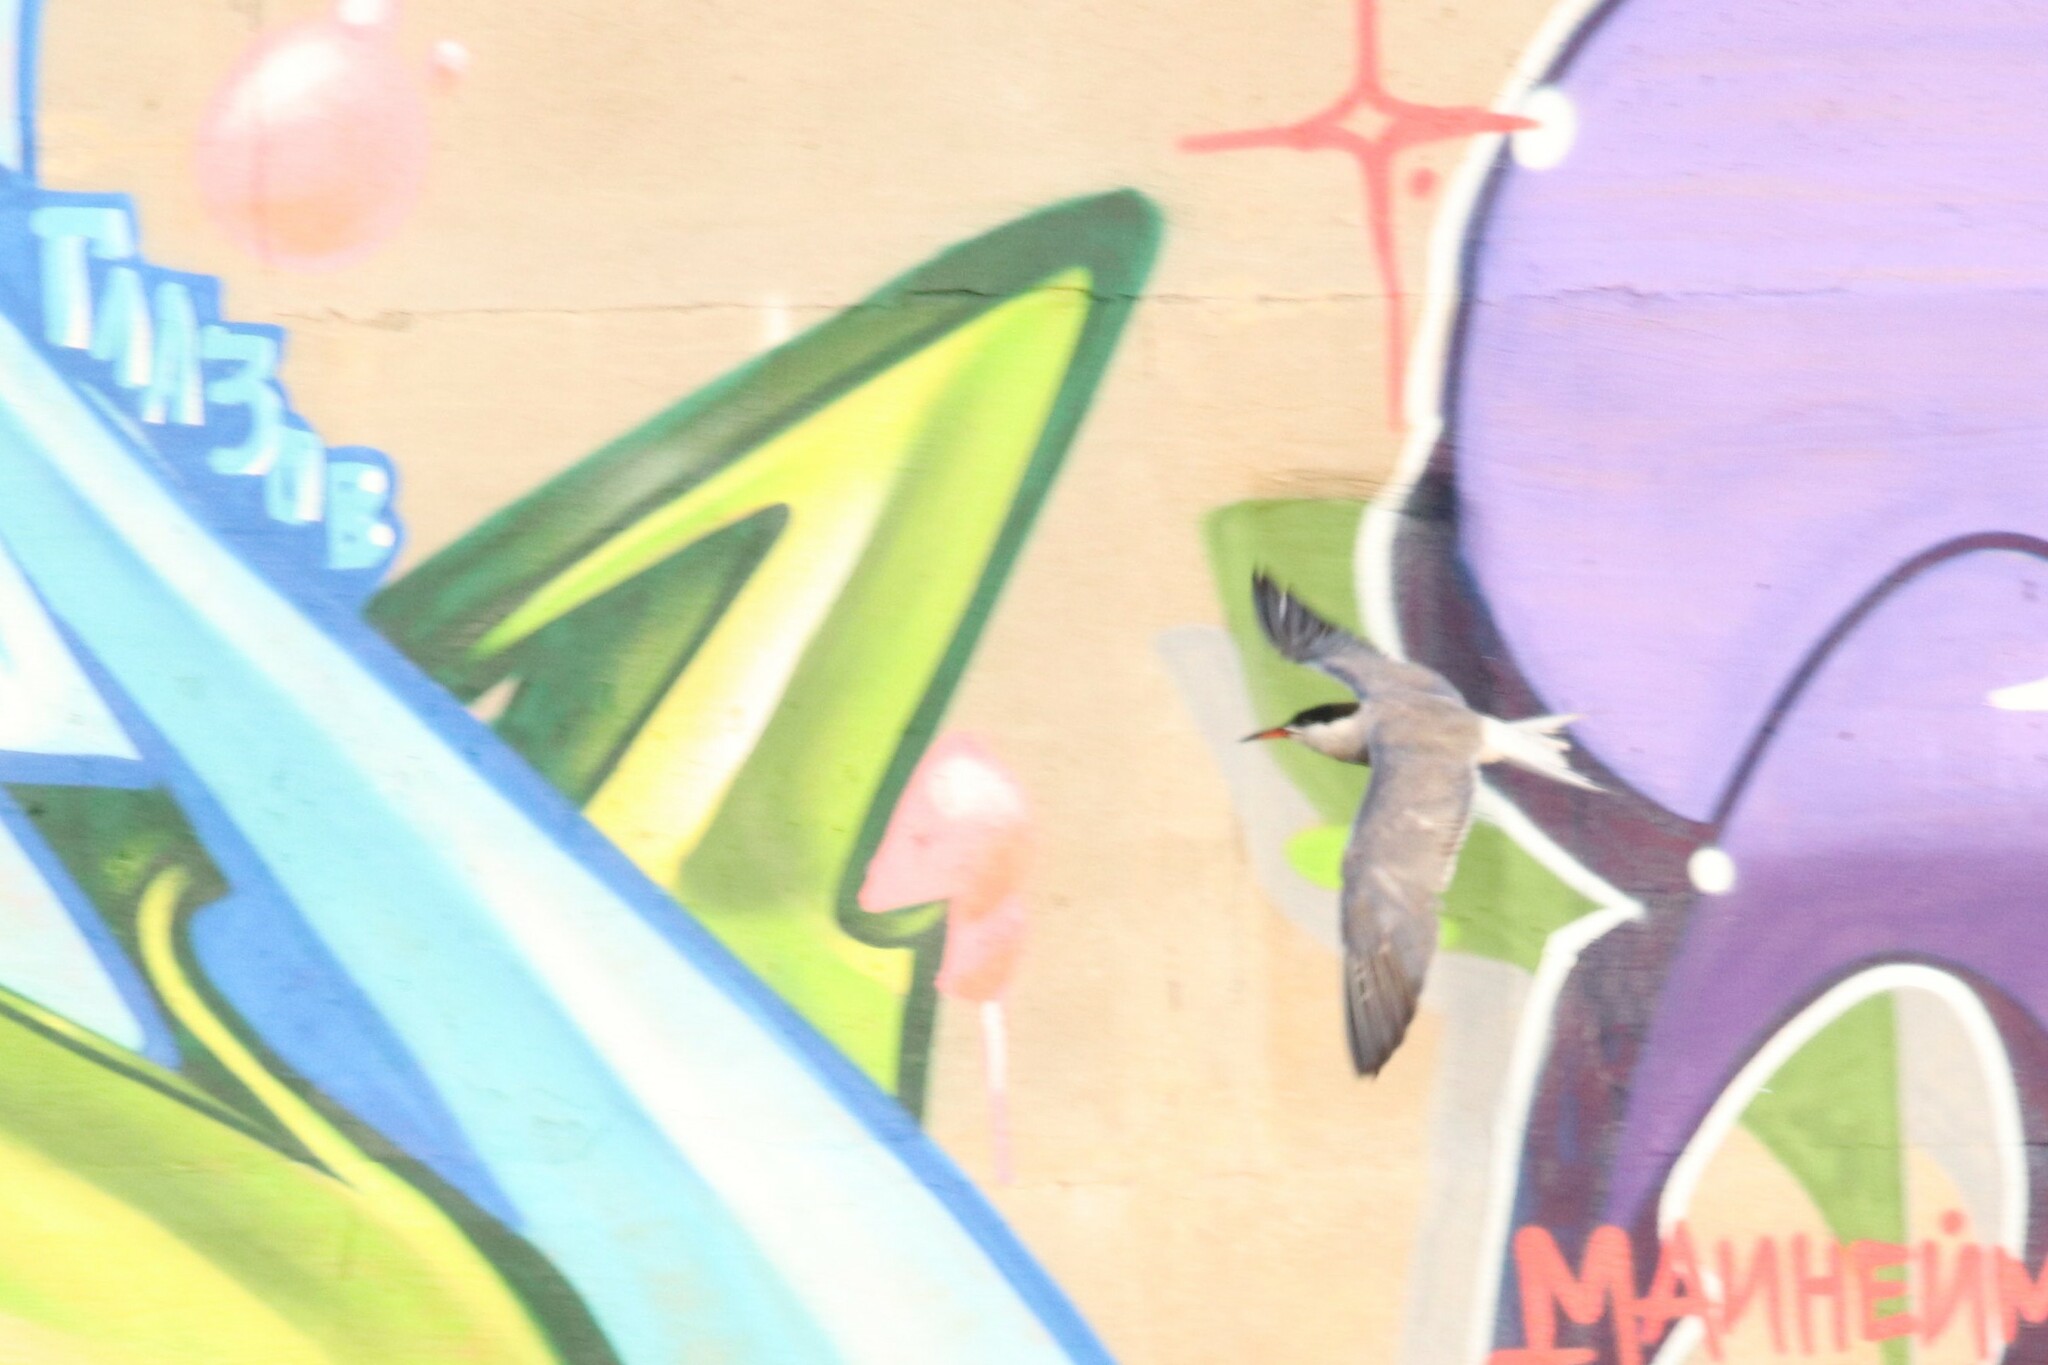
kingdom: Animalia
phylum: Chordata
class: Aves
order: Charadriiformes
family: Laridae
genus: Sterna
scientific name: Sterna hirundo
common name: Common tern
